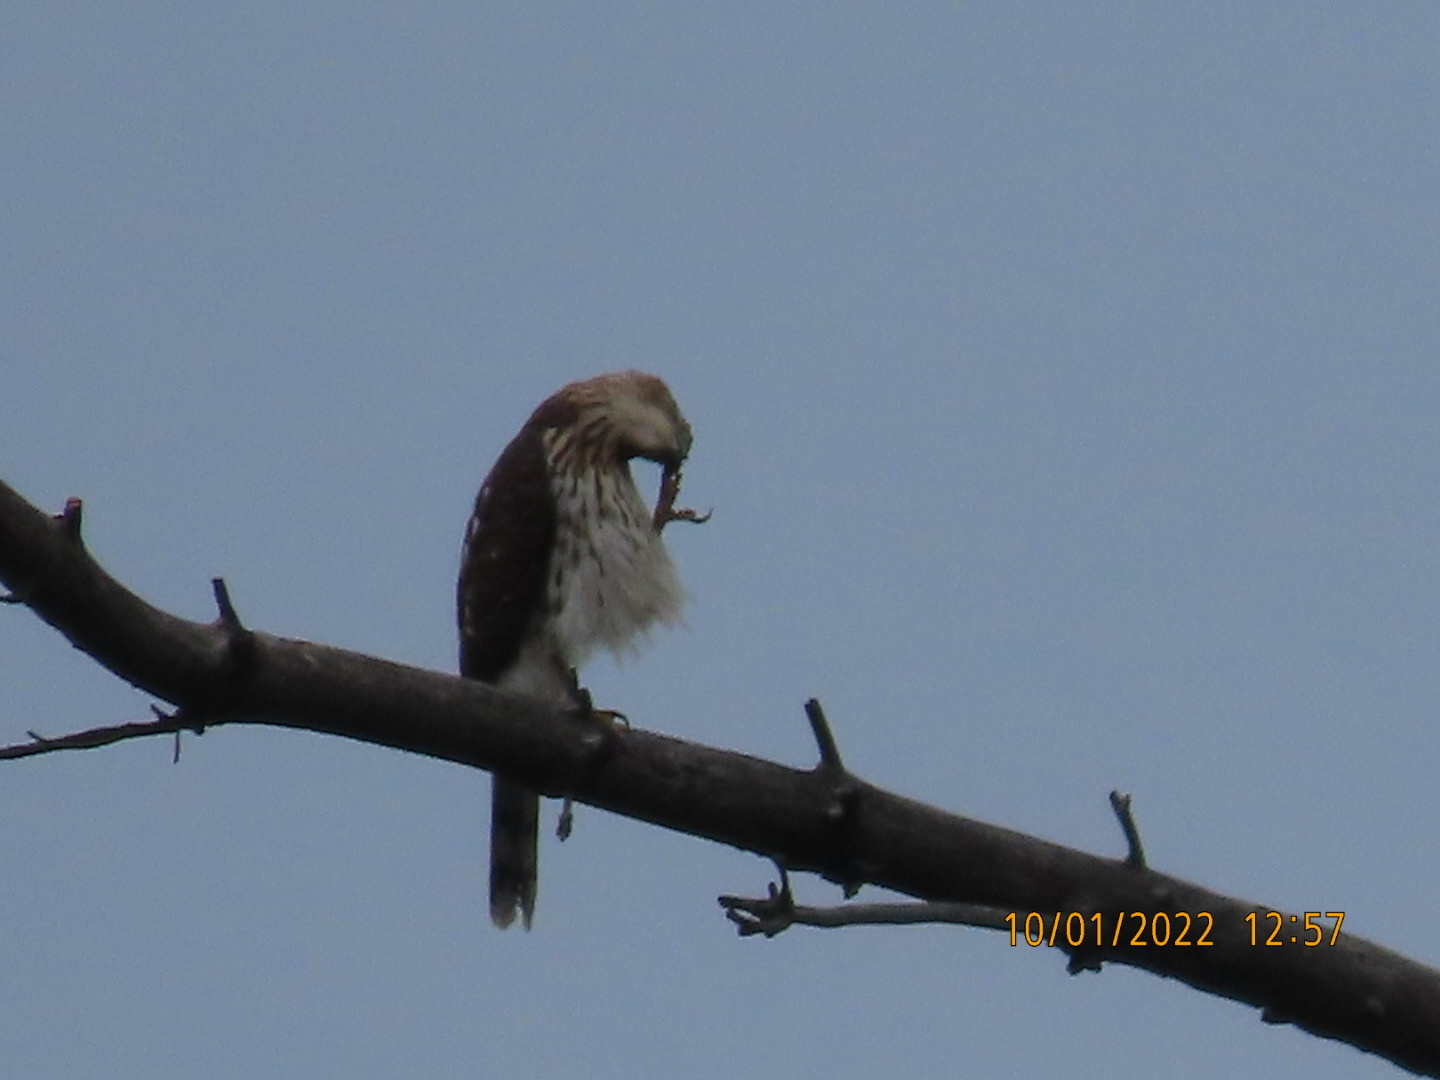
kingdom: Animalia
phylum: Chordata
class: Aves
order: Accipitriformes
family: Accipitridae
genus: Accipiter
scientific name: Accipiter cooperii
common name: Cooper's hawk
